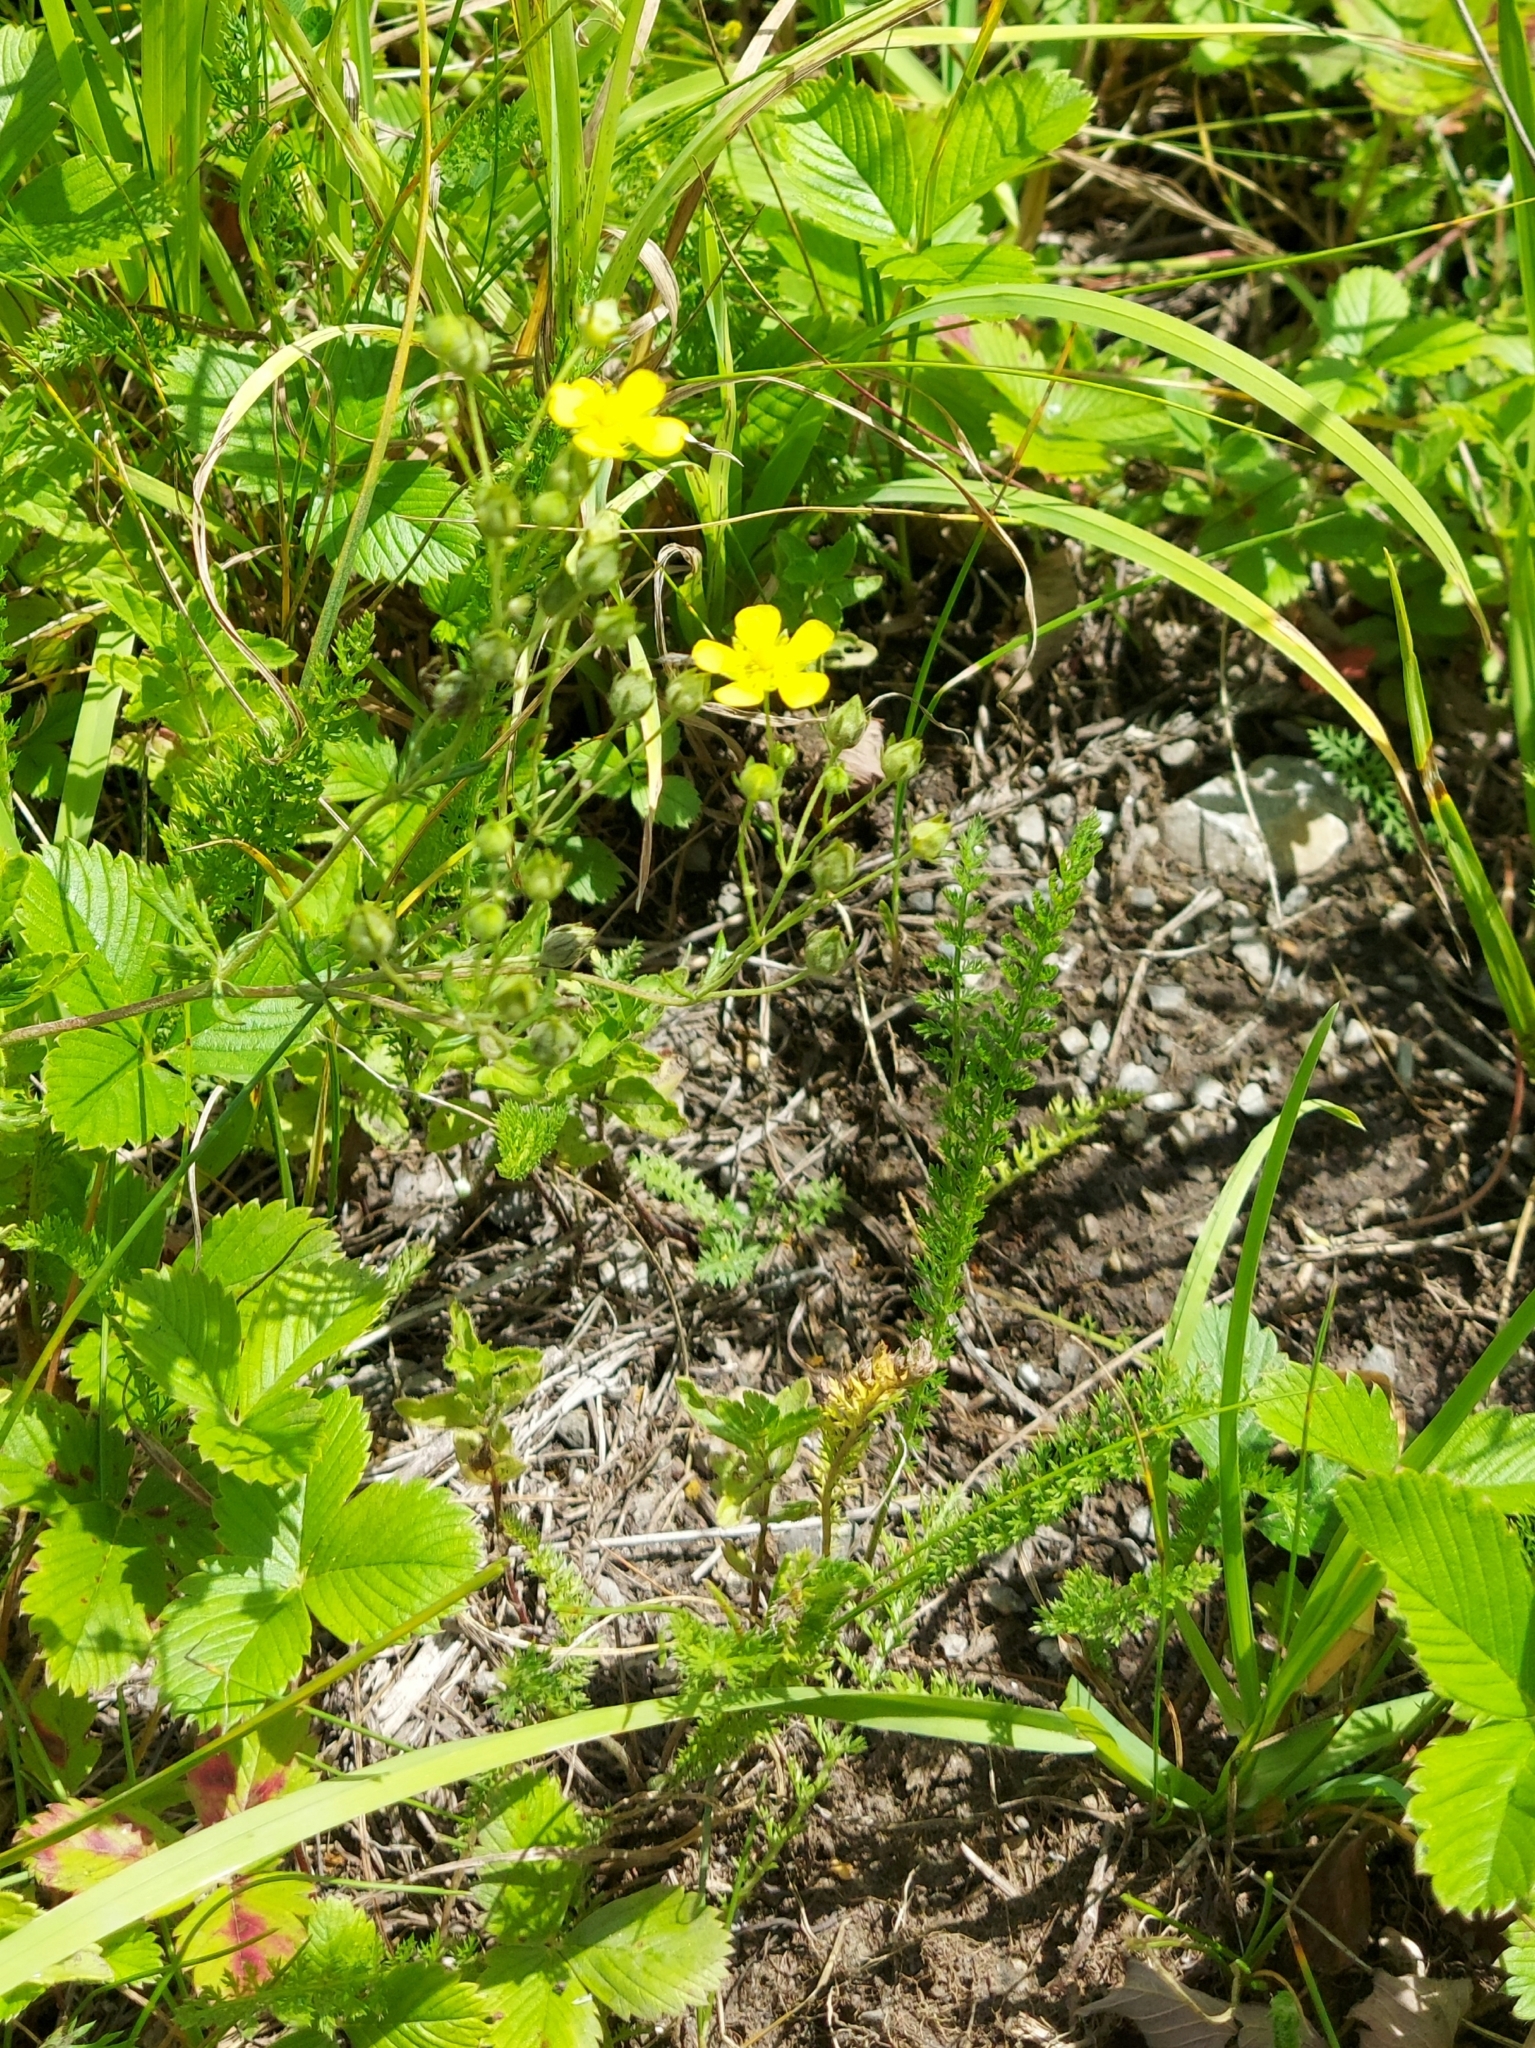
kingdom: Plantae
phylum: Tracheophyta
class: Magnoliopsida
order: Rosales
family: Rosaceae
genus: Potentilla
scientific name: Potentilla argentea
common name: Hoary cinquefoil
